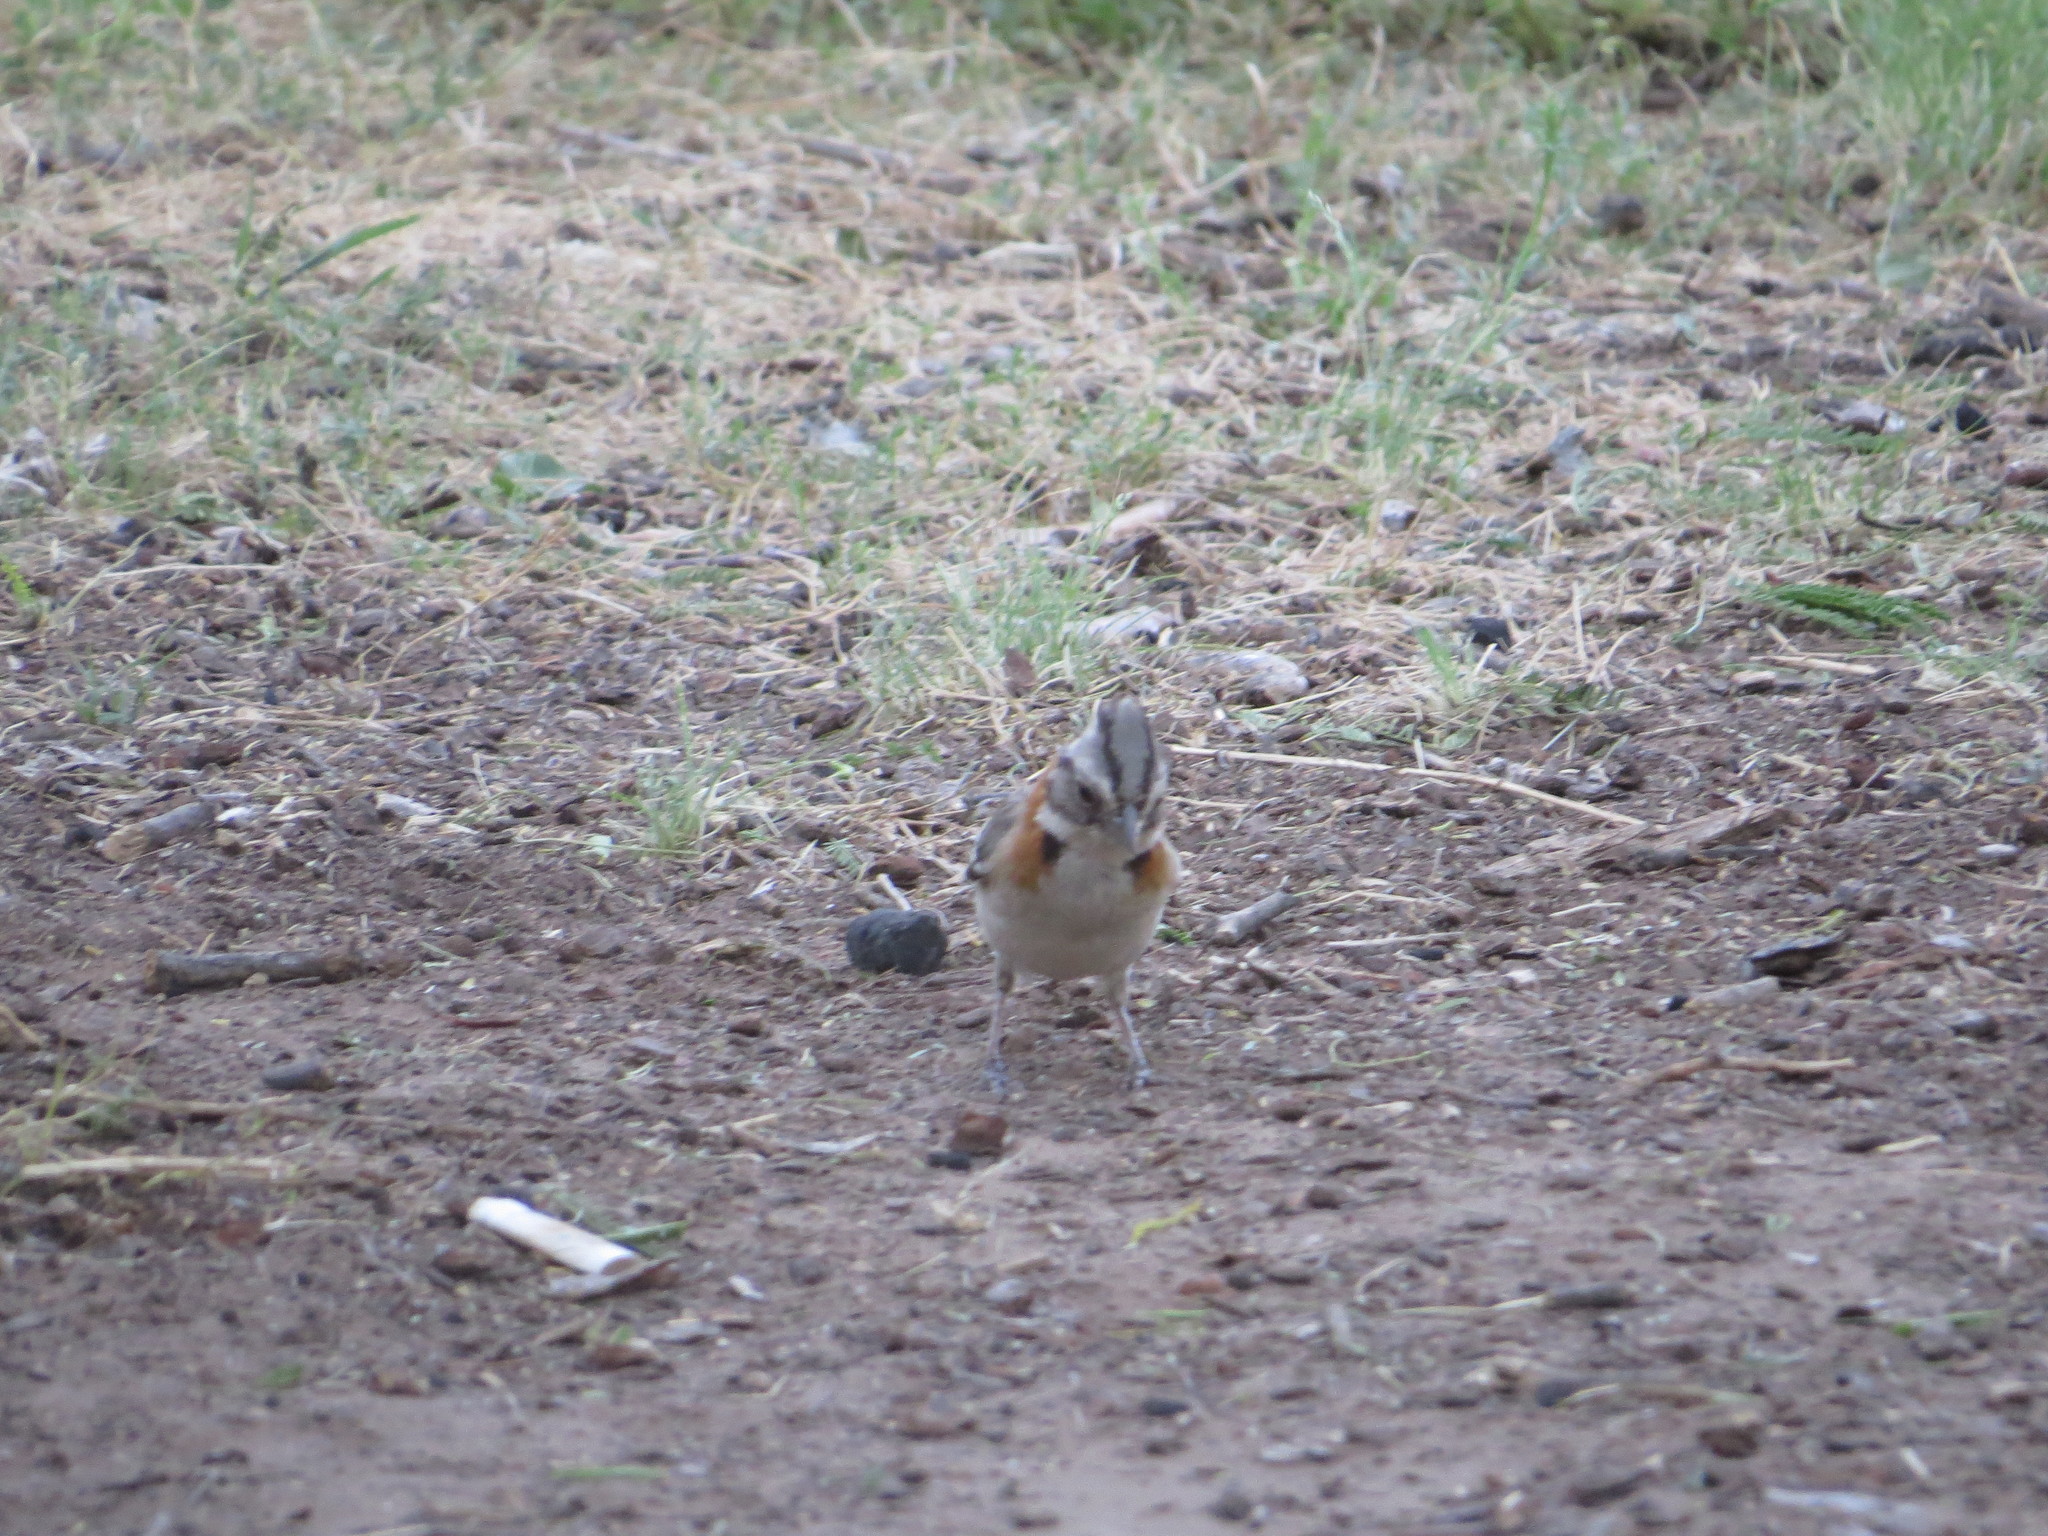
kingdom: Animalia
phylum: Chordata
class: Aves
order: Passeriformes
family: Passerellidae
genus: Zonotrichia
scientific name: Zonotrichia capensis
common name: Rufous-collared sparrow
